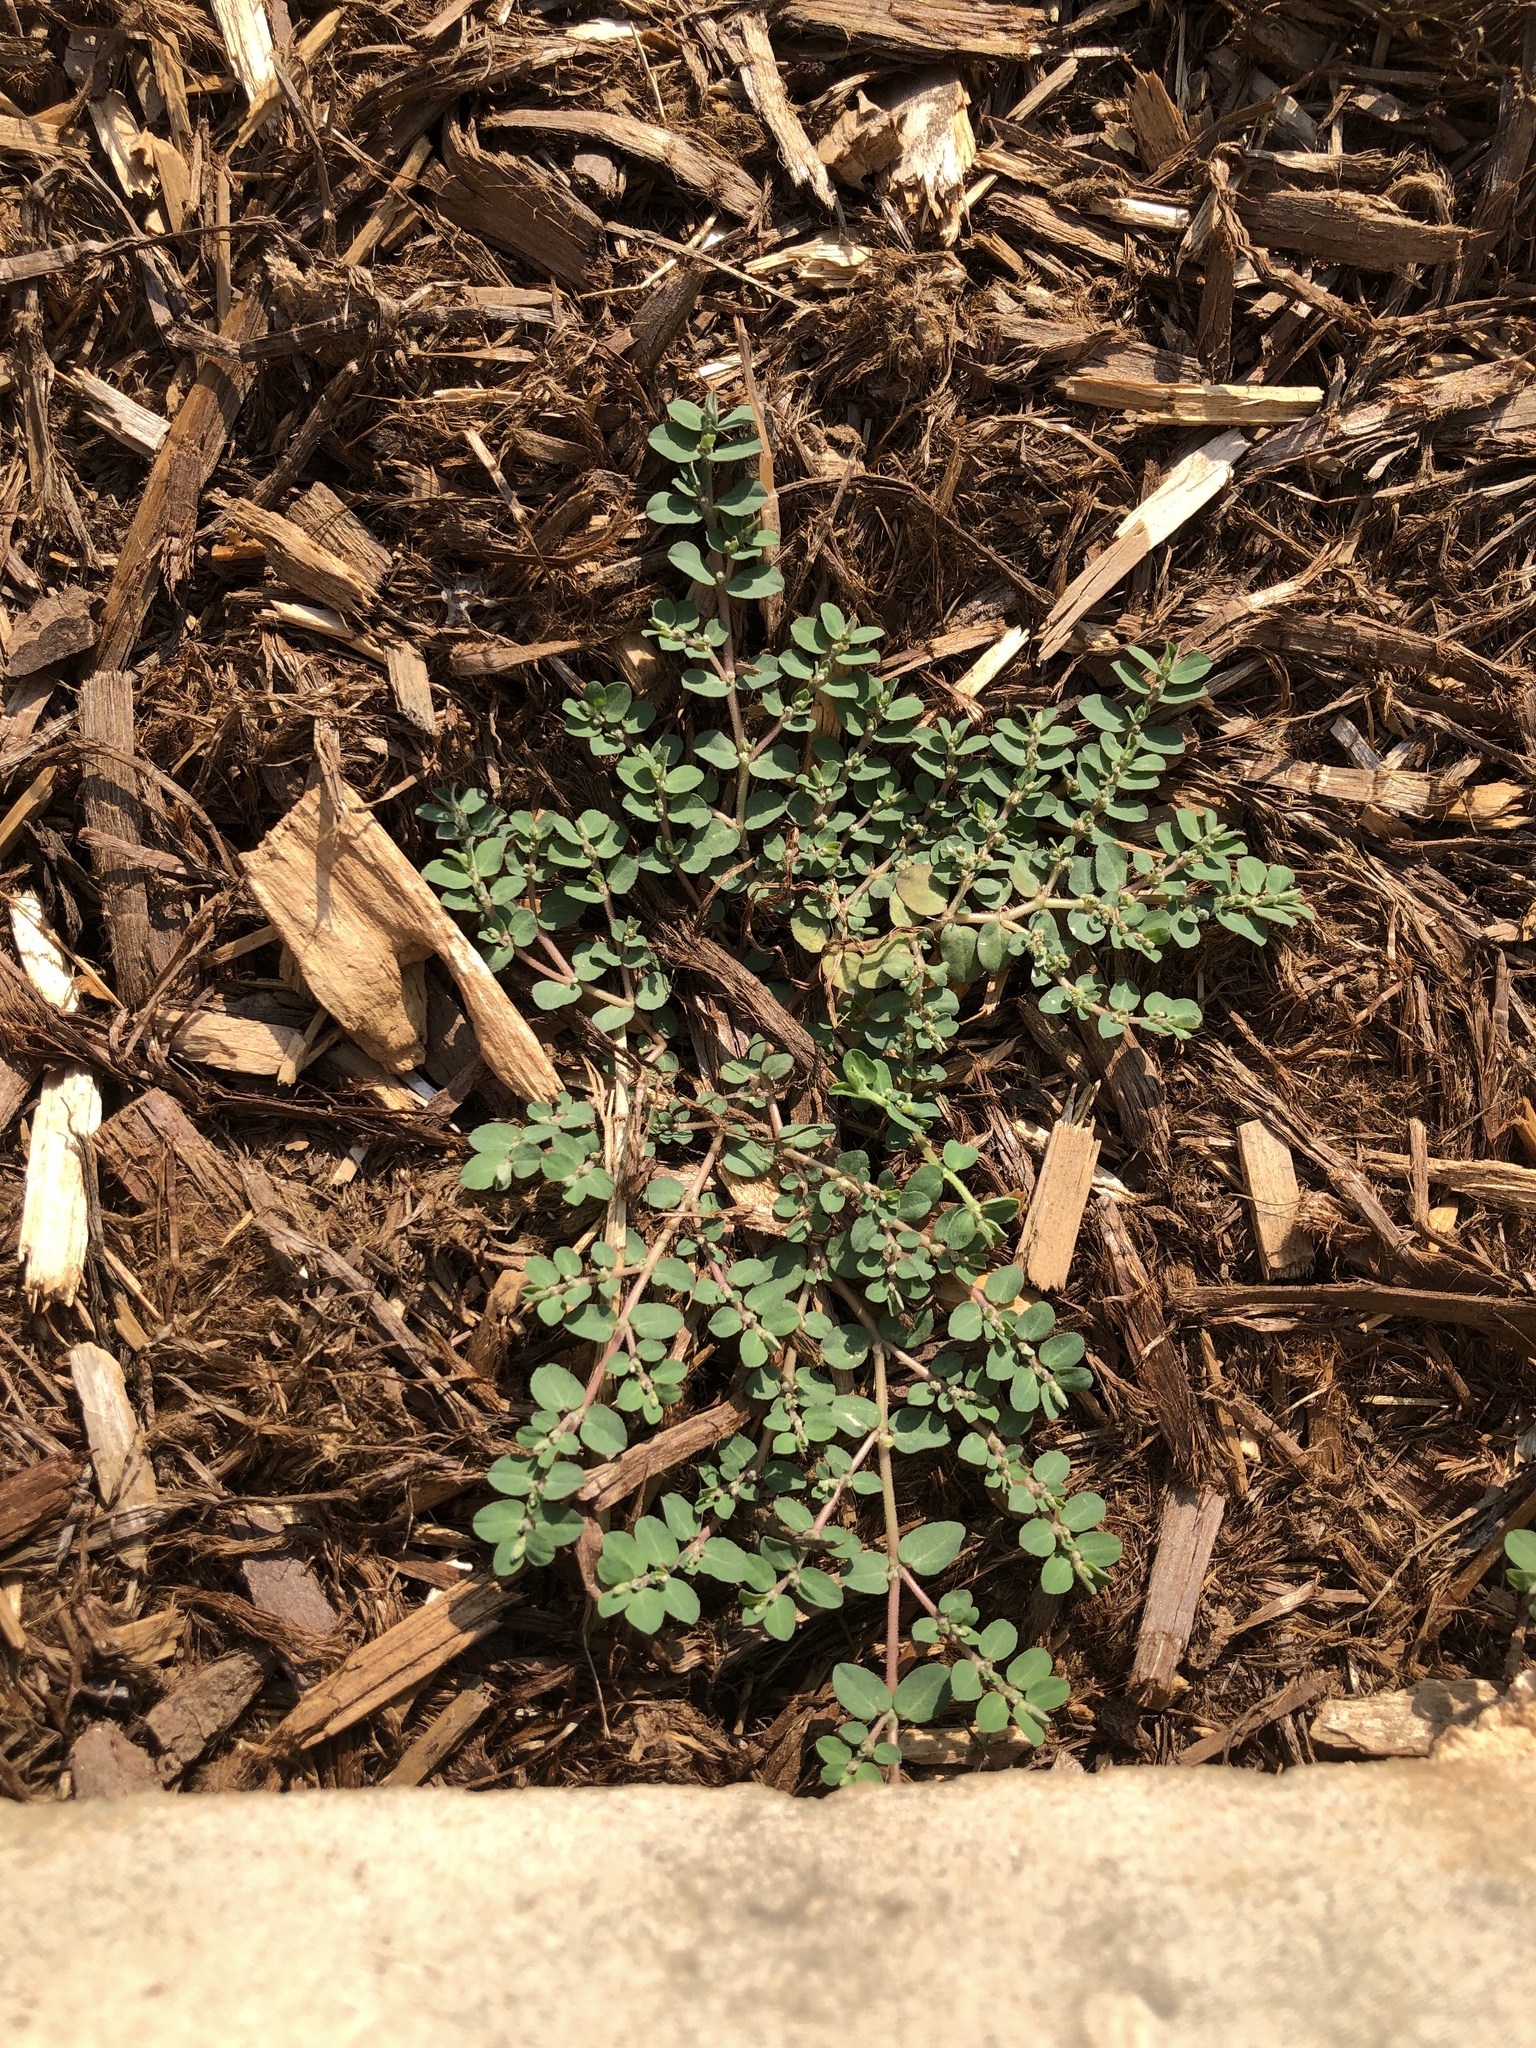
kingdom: Plantae
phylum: Tracheophyta
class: Magnoliopsida
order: Malpighiales
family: Euphorbiaceae
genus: Euphorbia
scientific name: Euphorbia prostrata
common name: Prostrate sandmat
